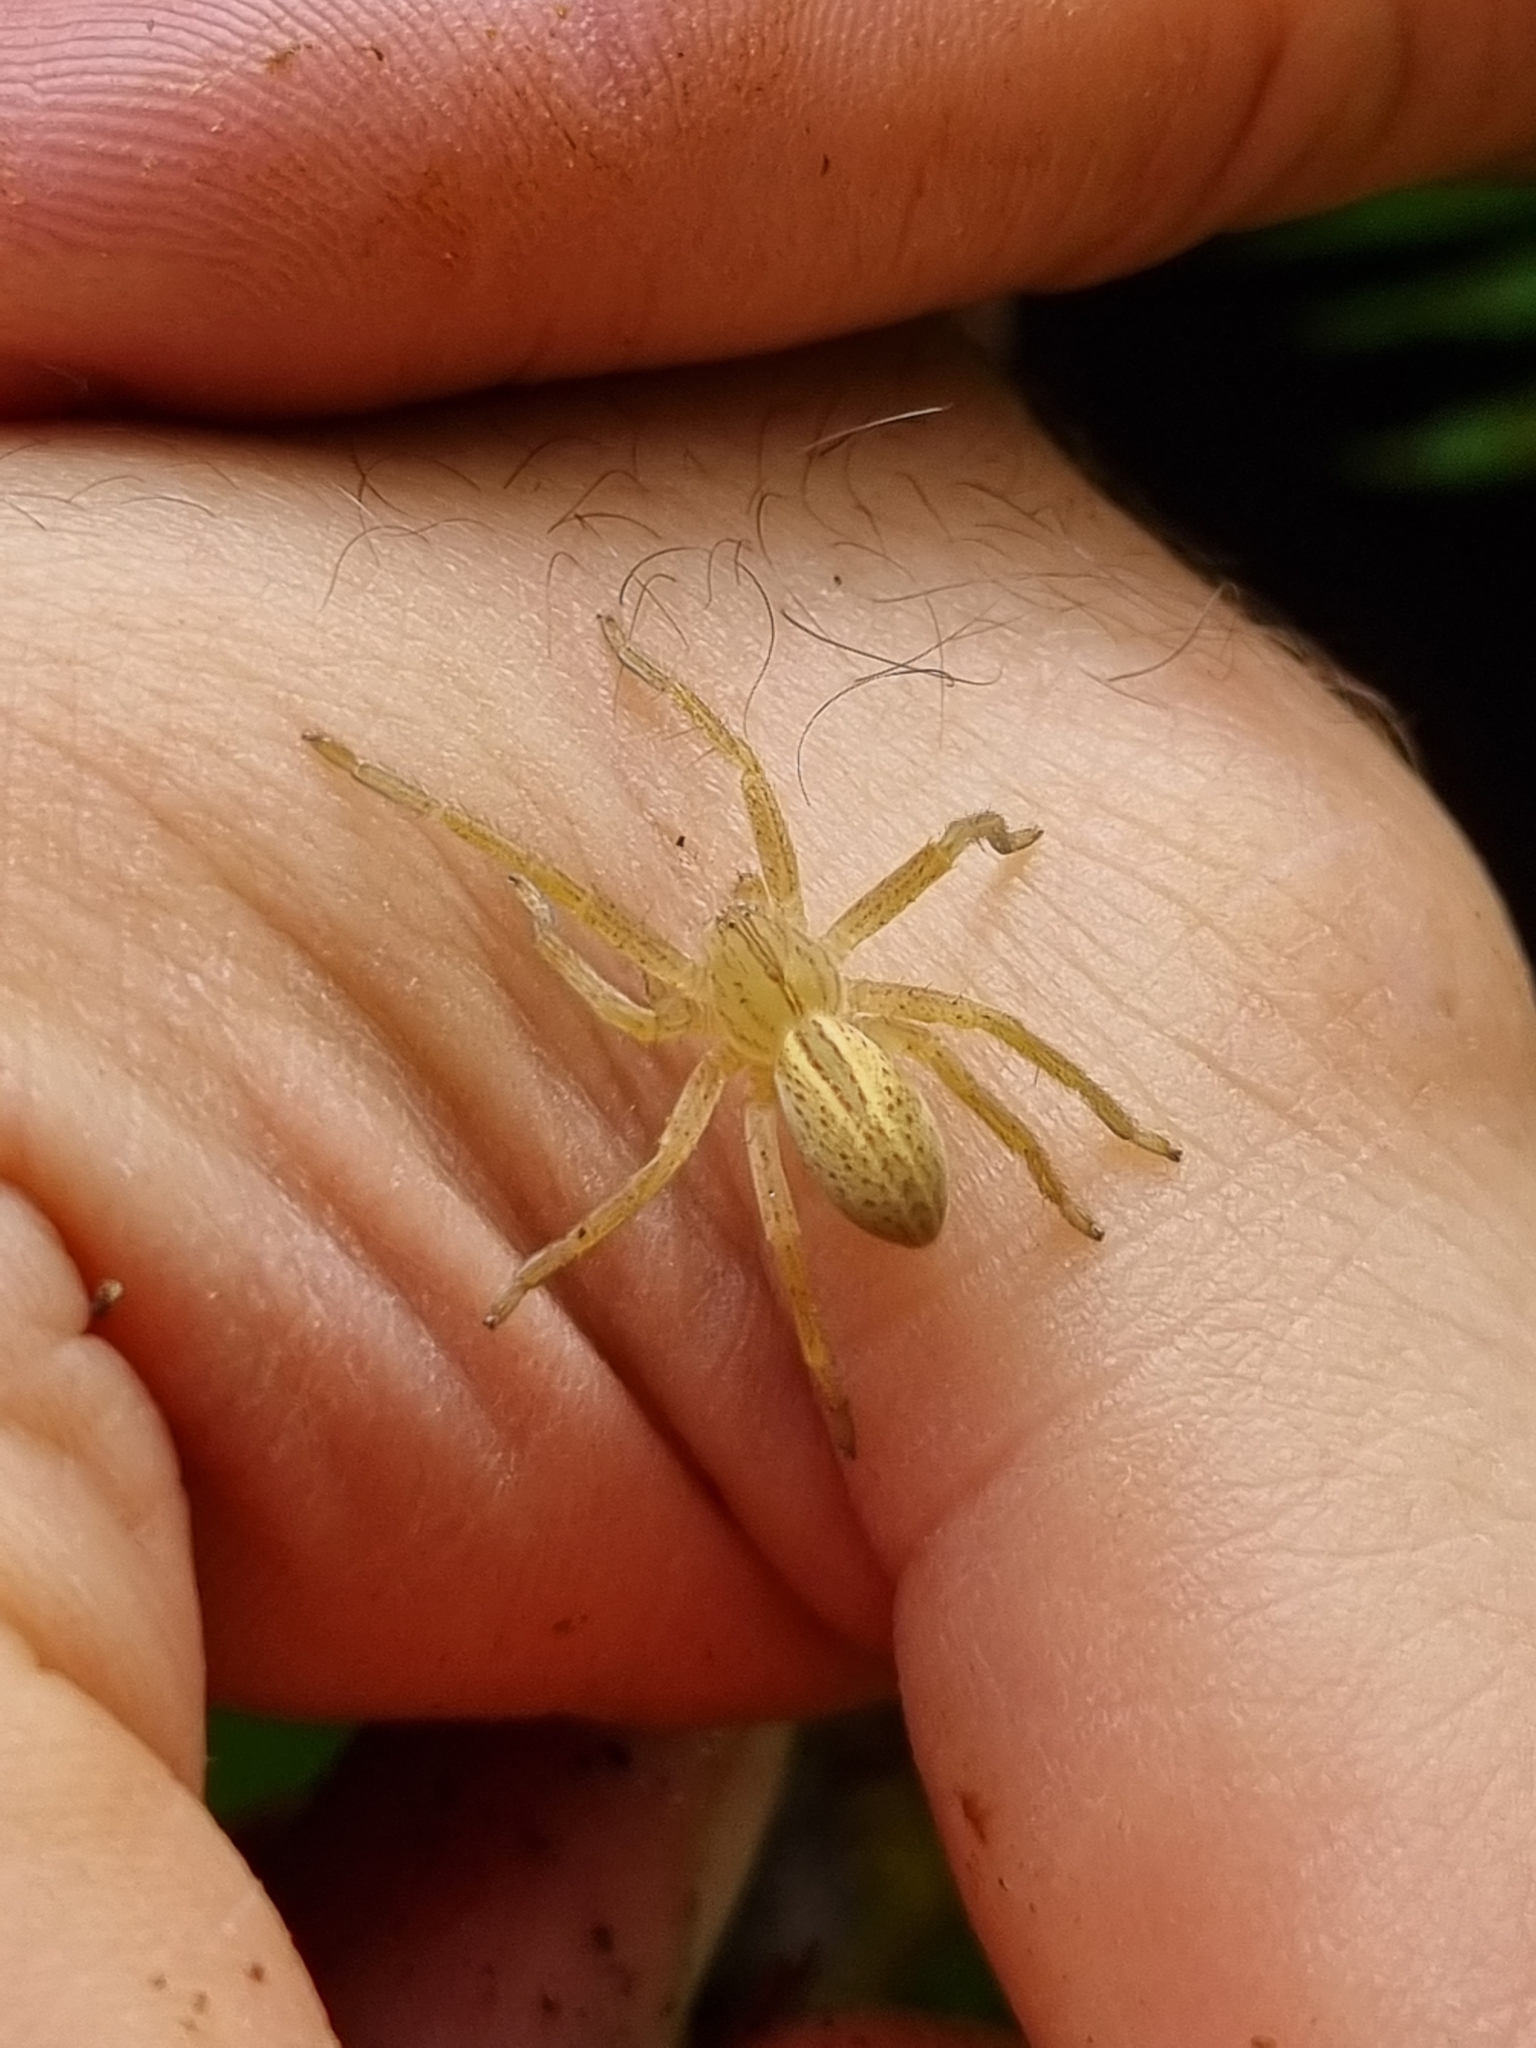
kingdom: Animalia
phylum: Arthropoda
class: Arachnida
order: Araneae
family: Sparassidae
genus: Micrommata
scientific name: Micrommata virescens
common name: Green spider
